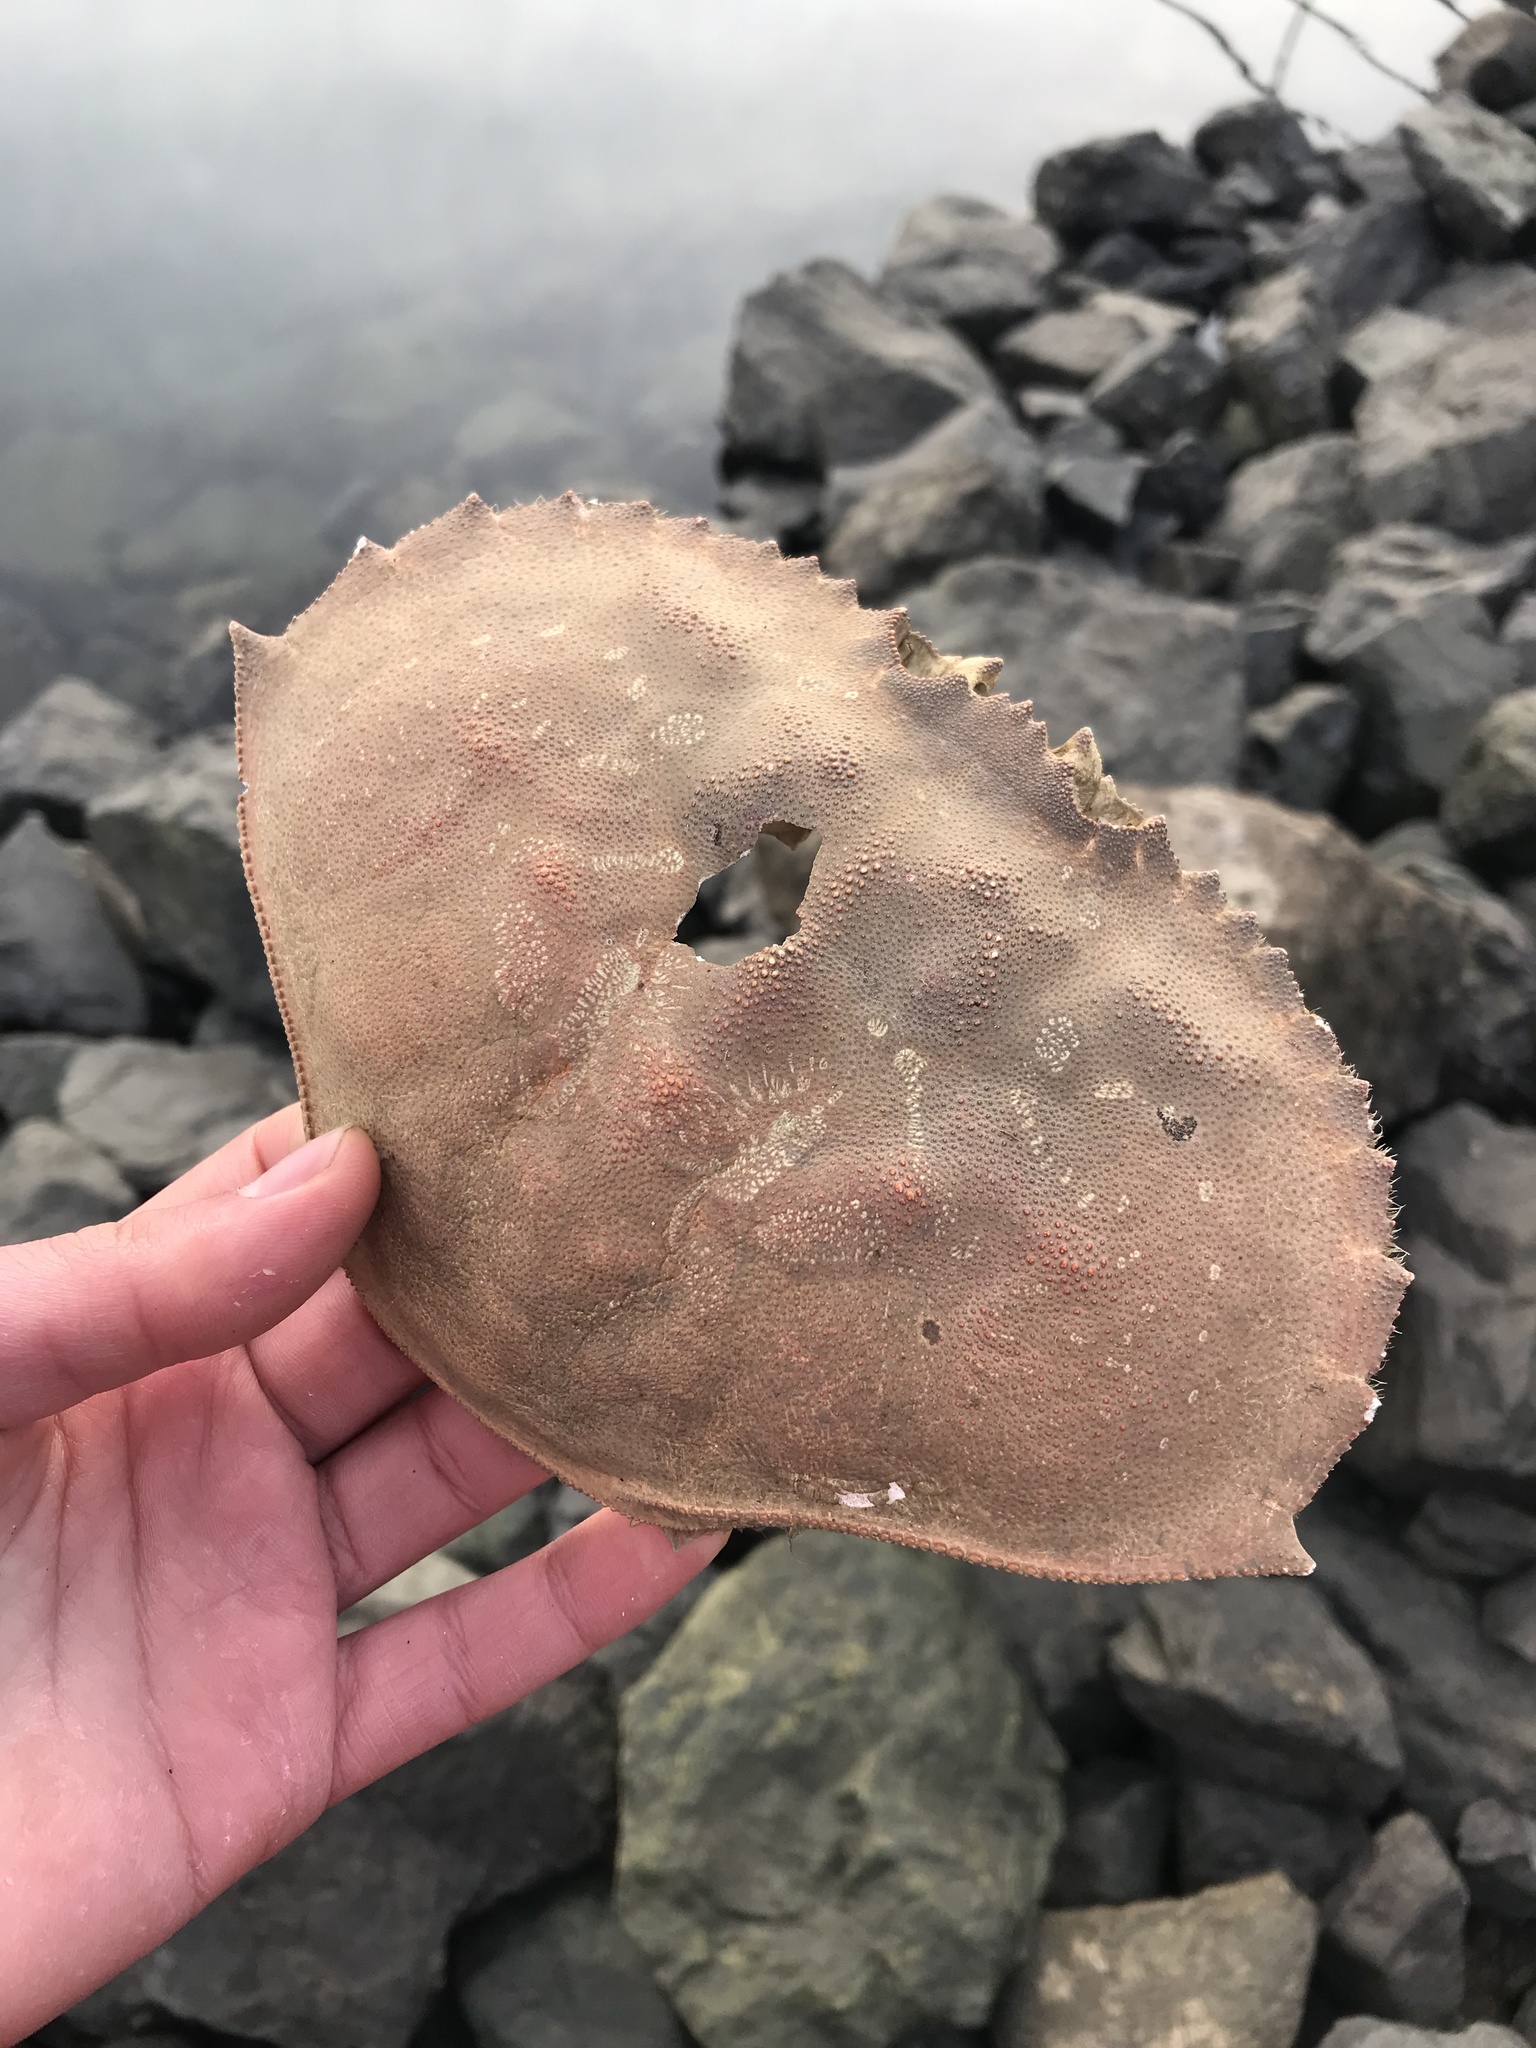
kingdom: Animalia
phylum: Arthropoda
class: Malacostraca
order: Decapoda
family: Cancridae
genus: Metacarcinus
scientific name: Metacarcinus magister
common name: Californian crab
